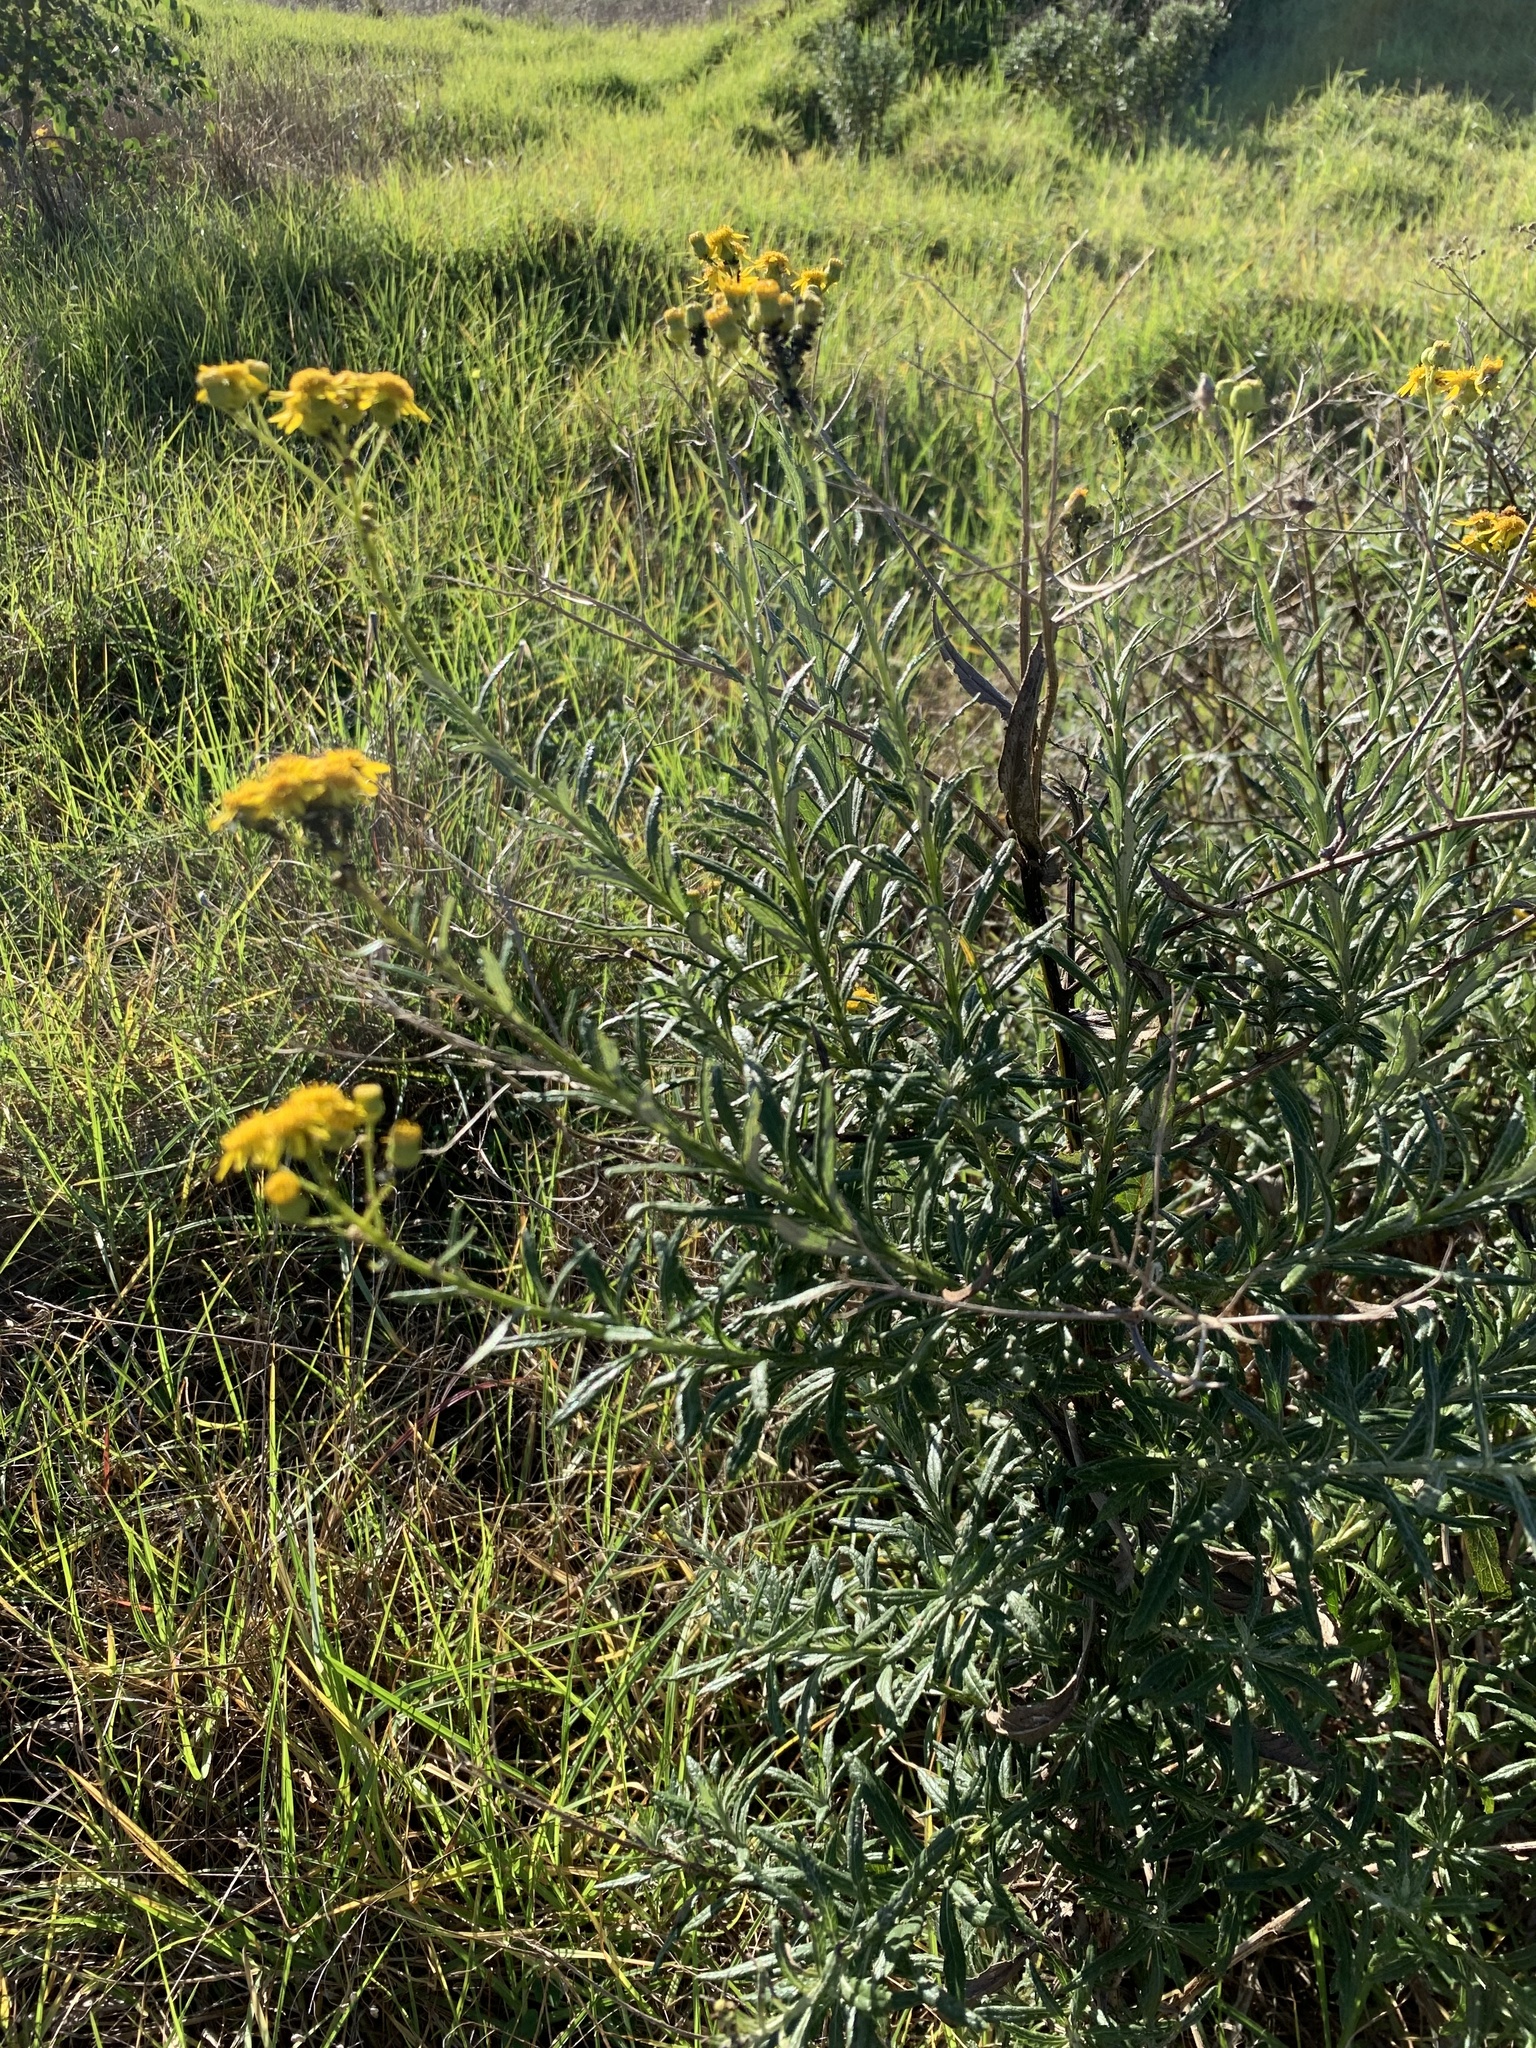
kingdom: Plantae
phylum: Tracheophyta
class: Magnoliopsida
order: Asterales
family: Asteraceae
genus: Senecio
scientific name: Senecio pterophorus
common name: Shoddy ragwort
